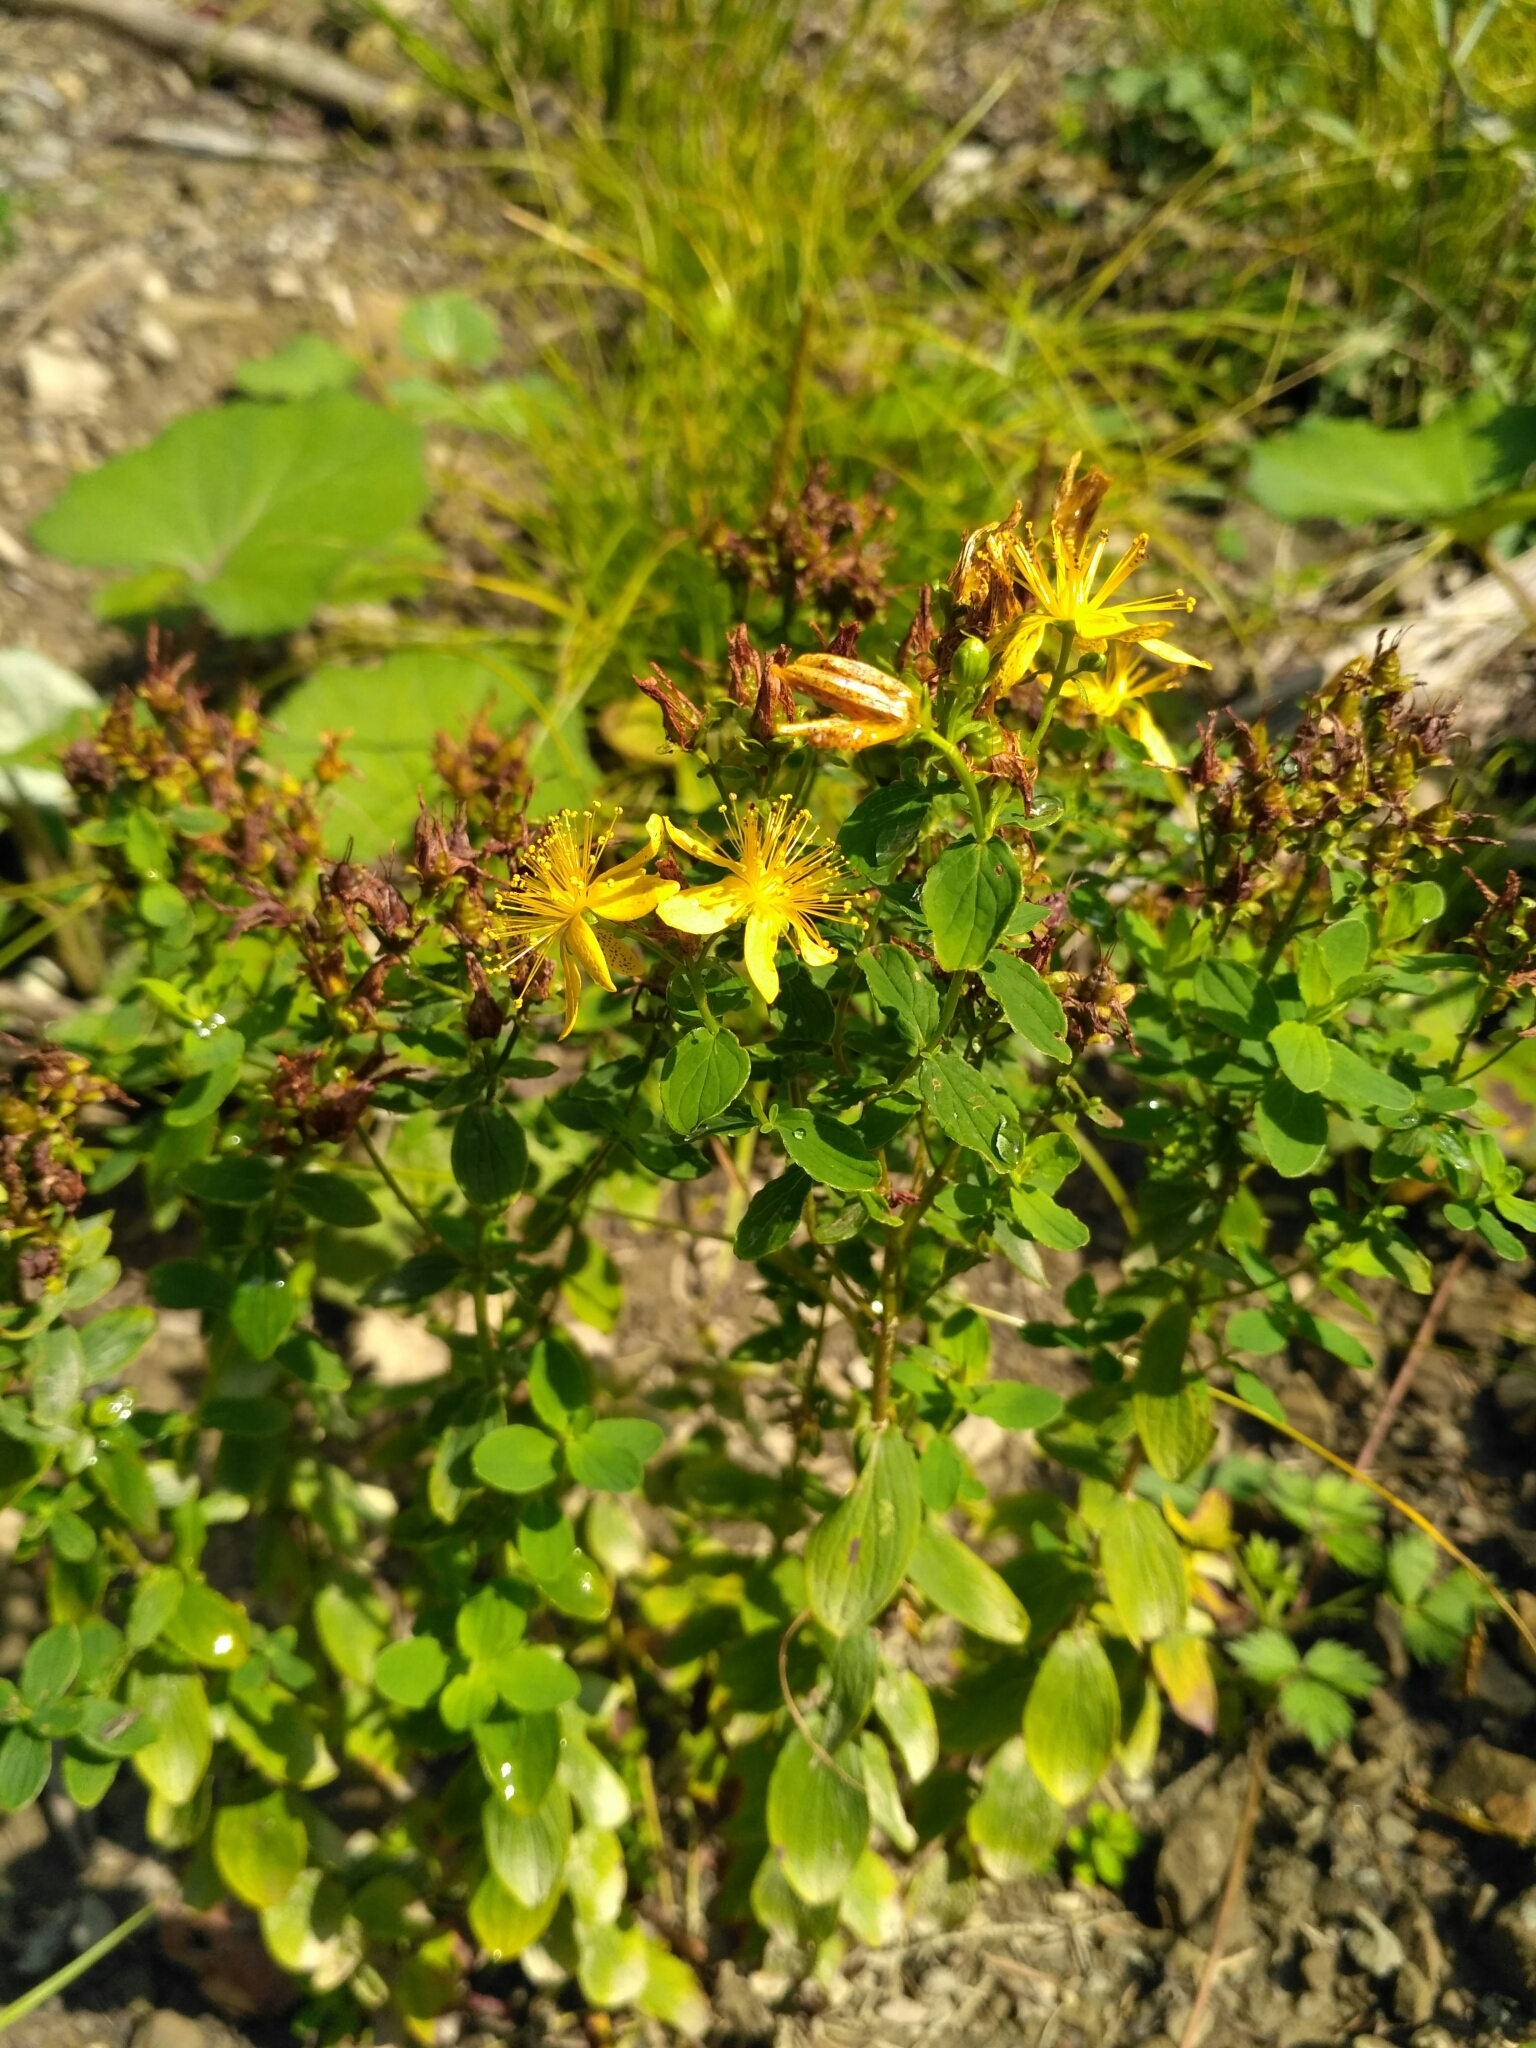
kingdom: Plantae
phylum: Tracheophyta
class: Magnoliopsida
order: Malpighiales
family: Hypericaceae
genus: Hypericum
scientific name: Hypericum maculatum
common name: Imperforate st. john's-wort
